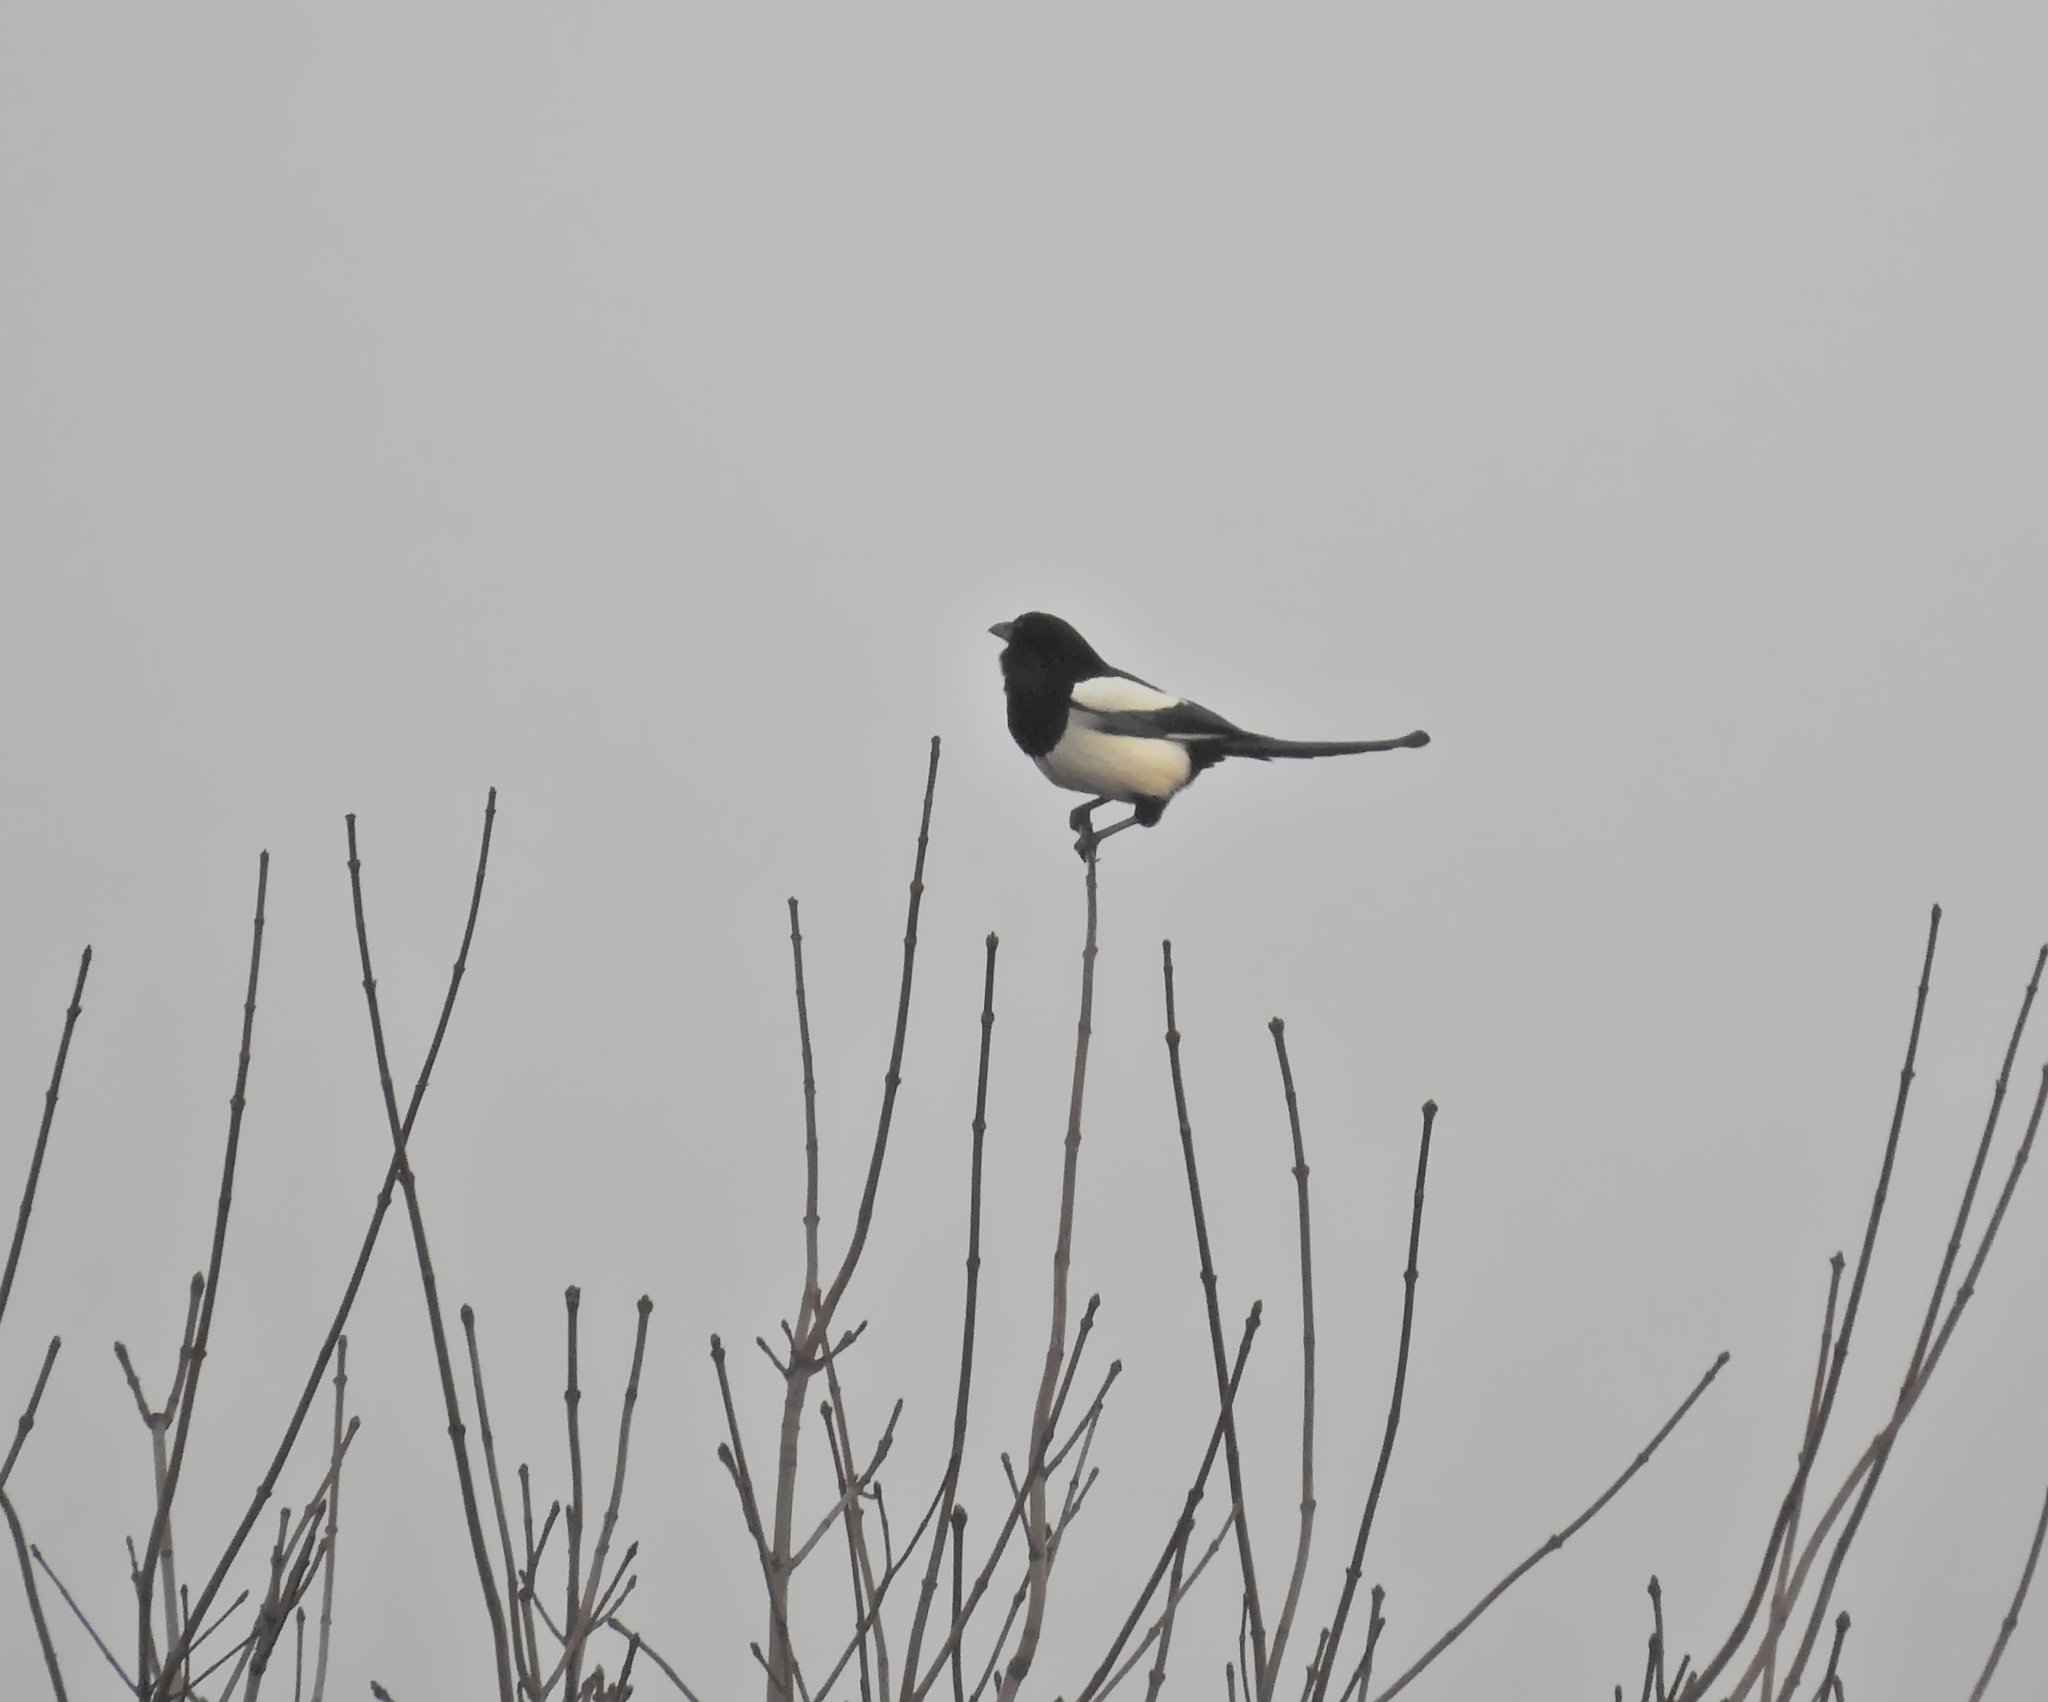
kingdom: Animalia
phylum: Chordata
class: Aves
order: Passeriformes
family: Corvidae
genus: Pica
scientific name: Pica pica
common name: Eurasian magpie
